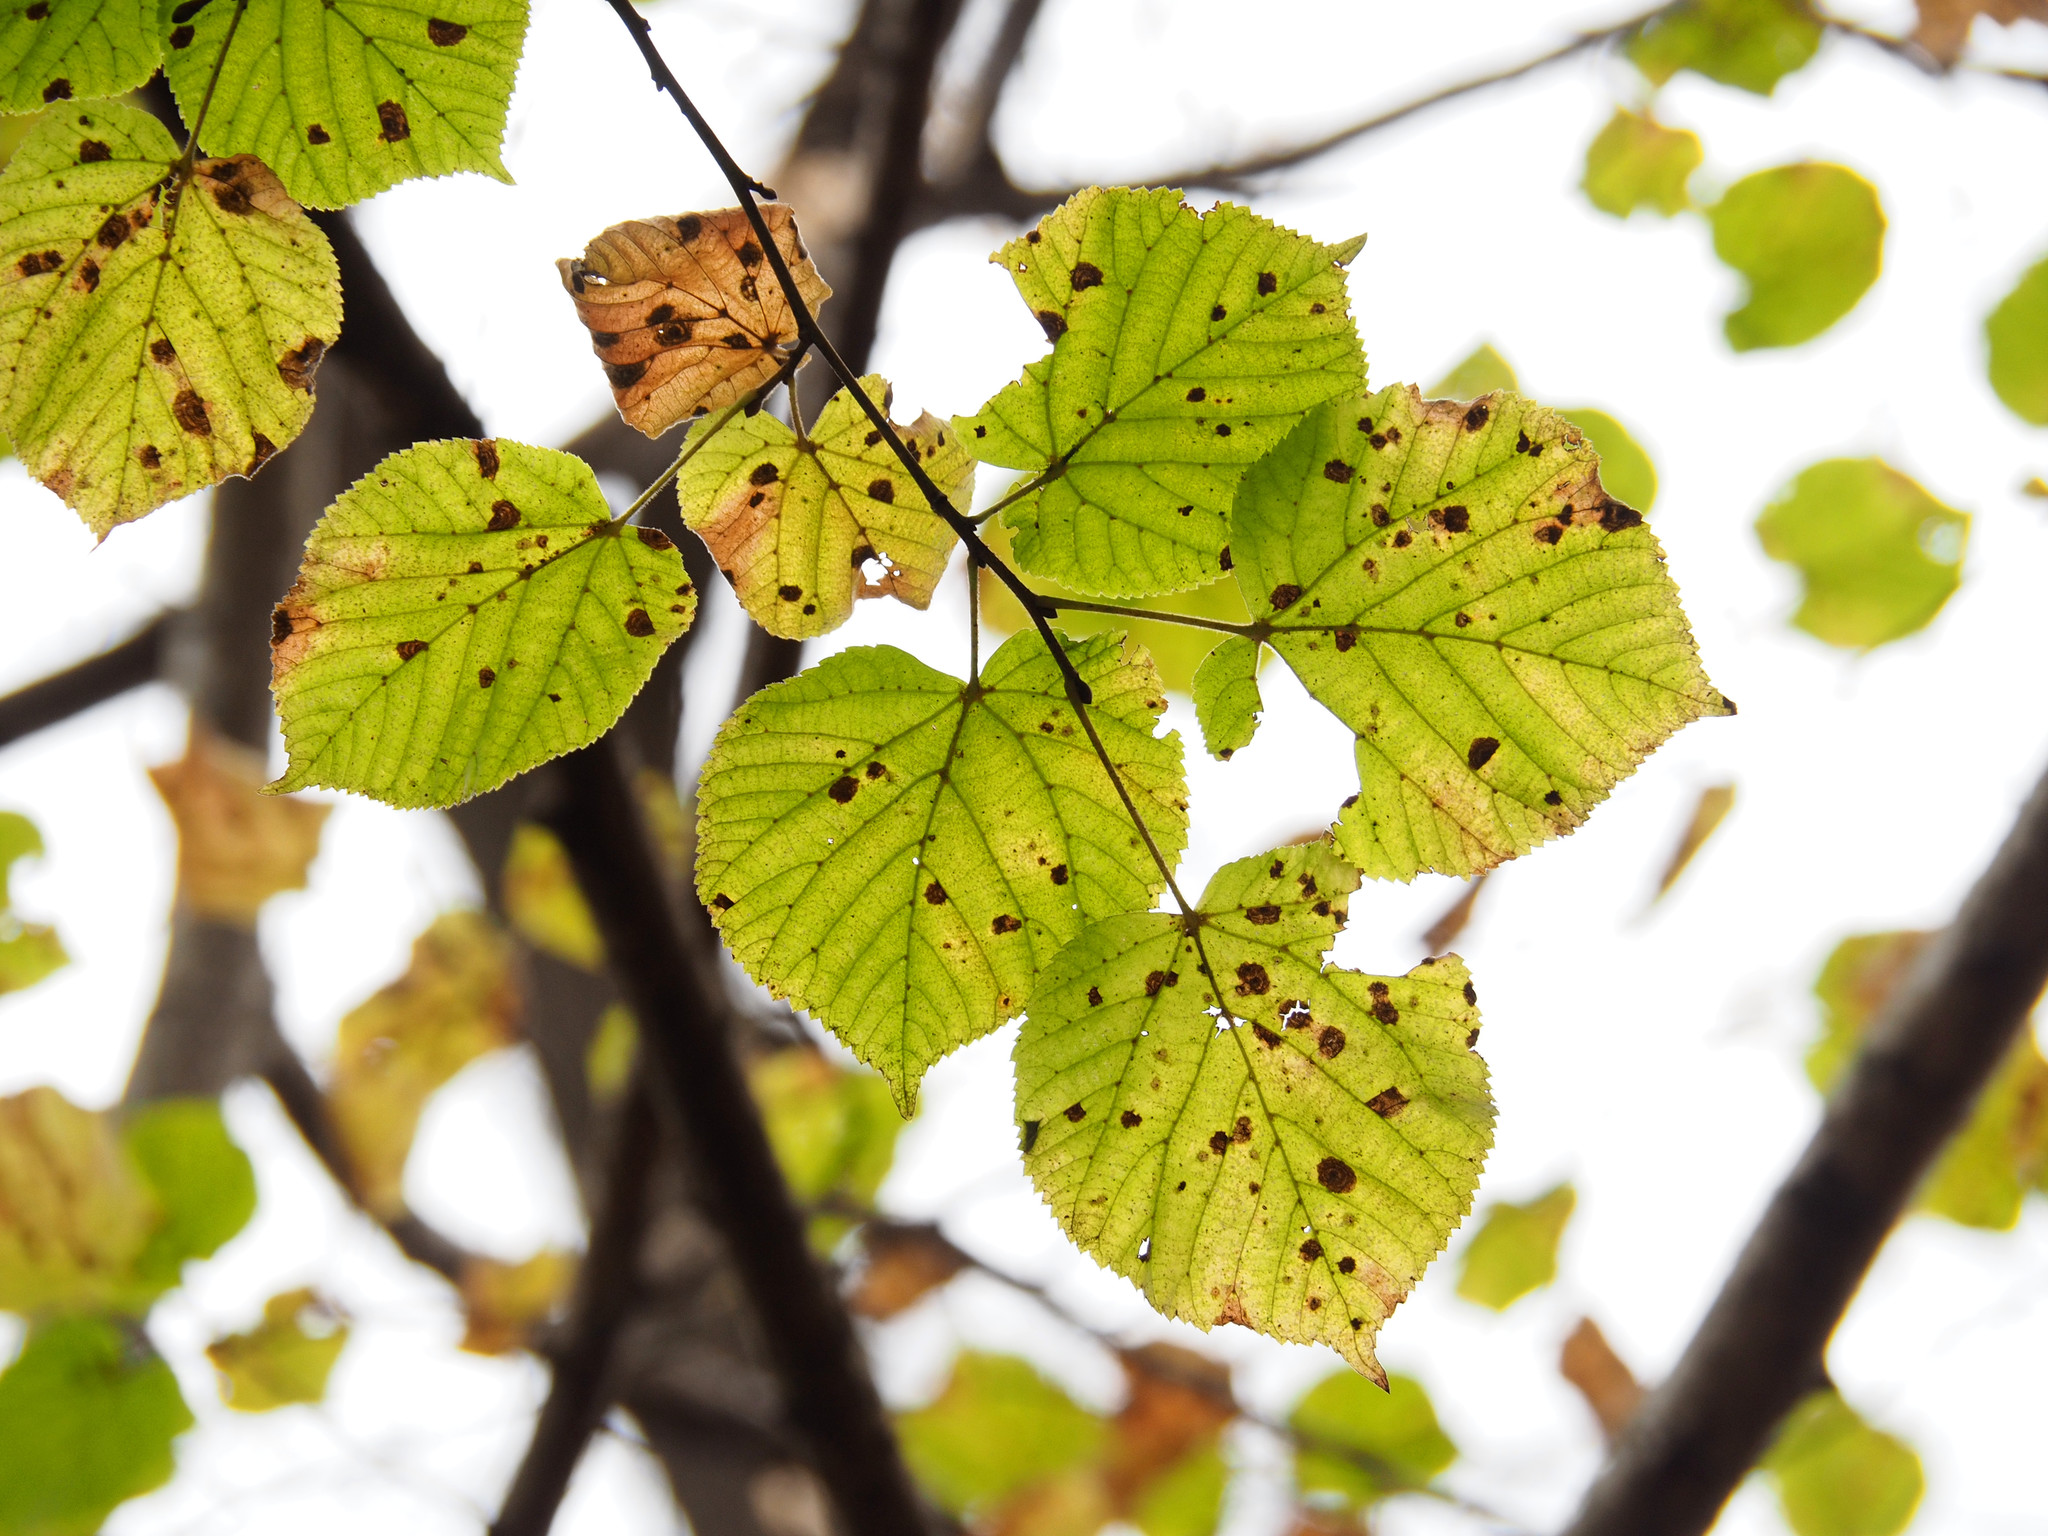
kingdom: Plantae
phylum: Tracheophyta
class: Magnoliopsida
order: Malvales
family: Malvaceae
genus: Tilia
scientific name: Tilia americana
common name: Basswood
